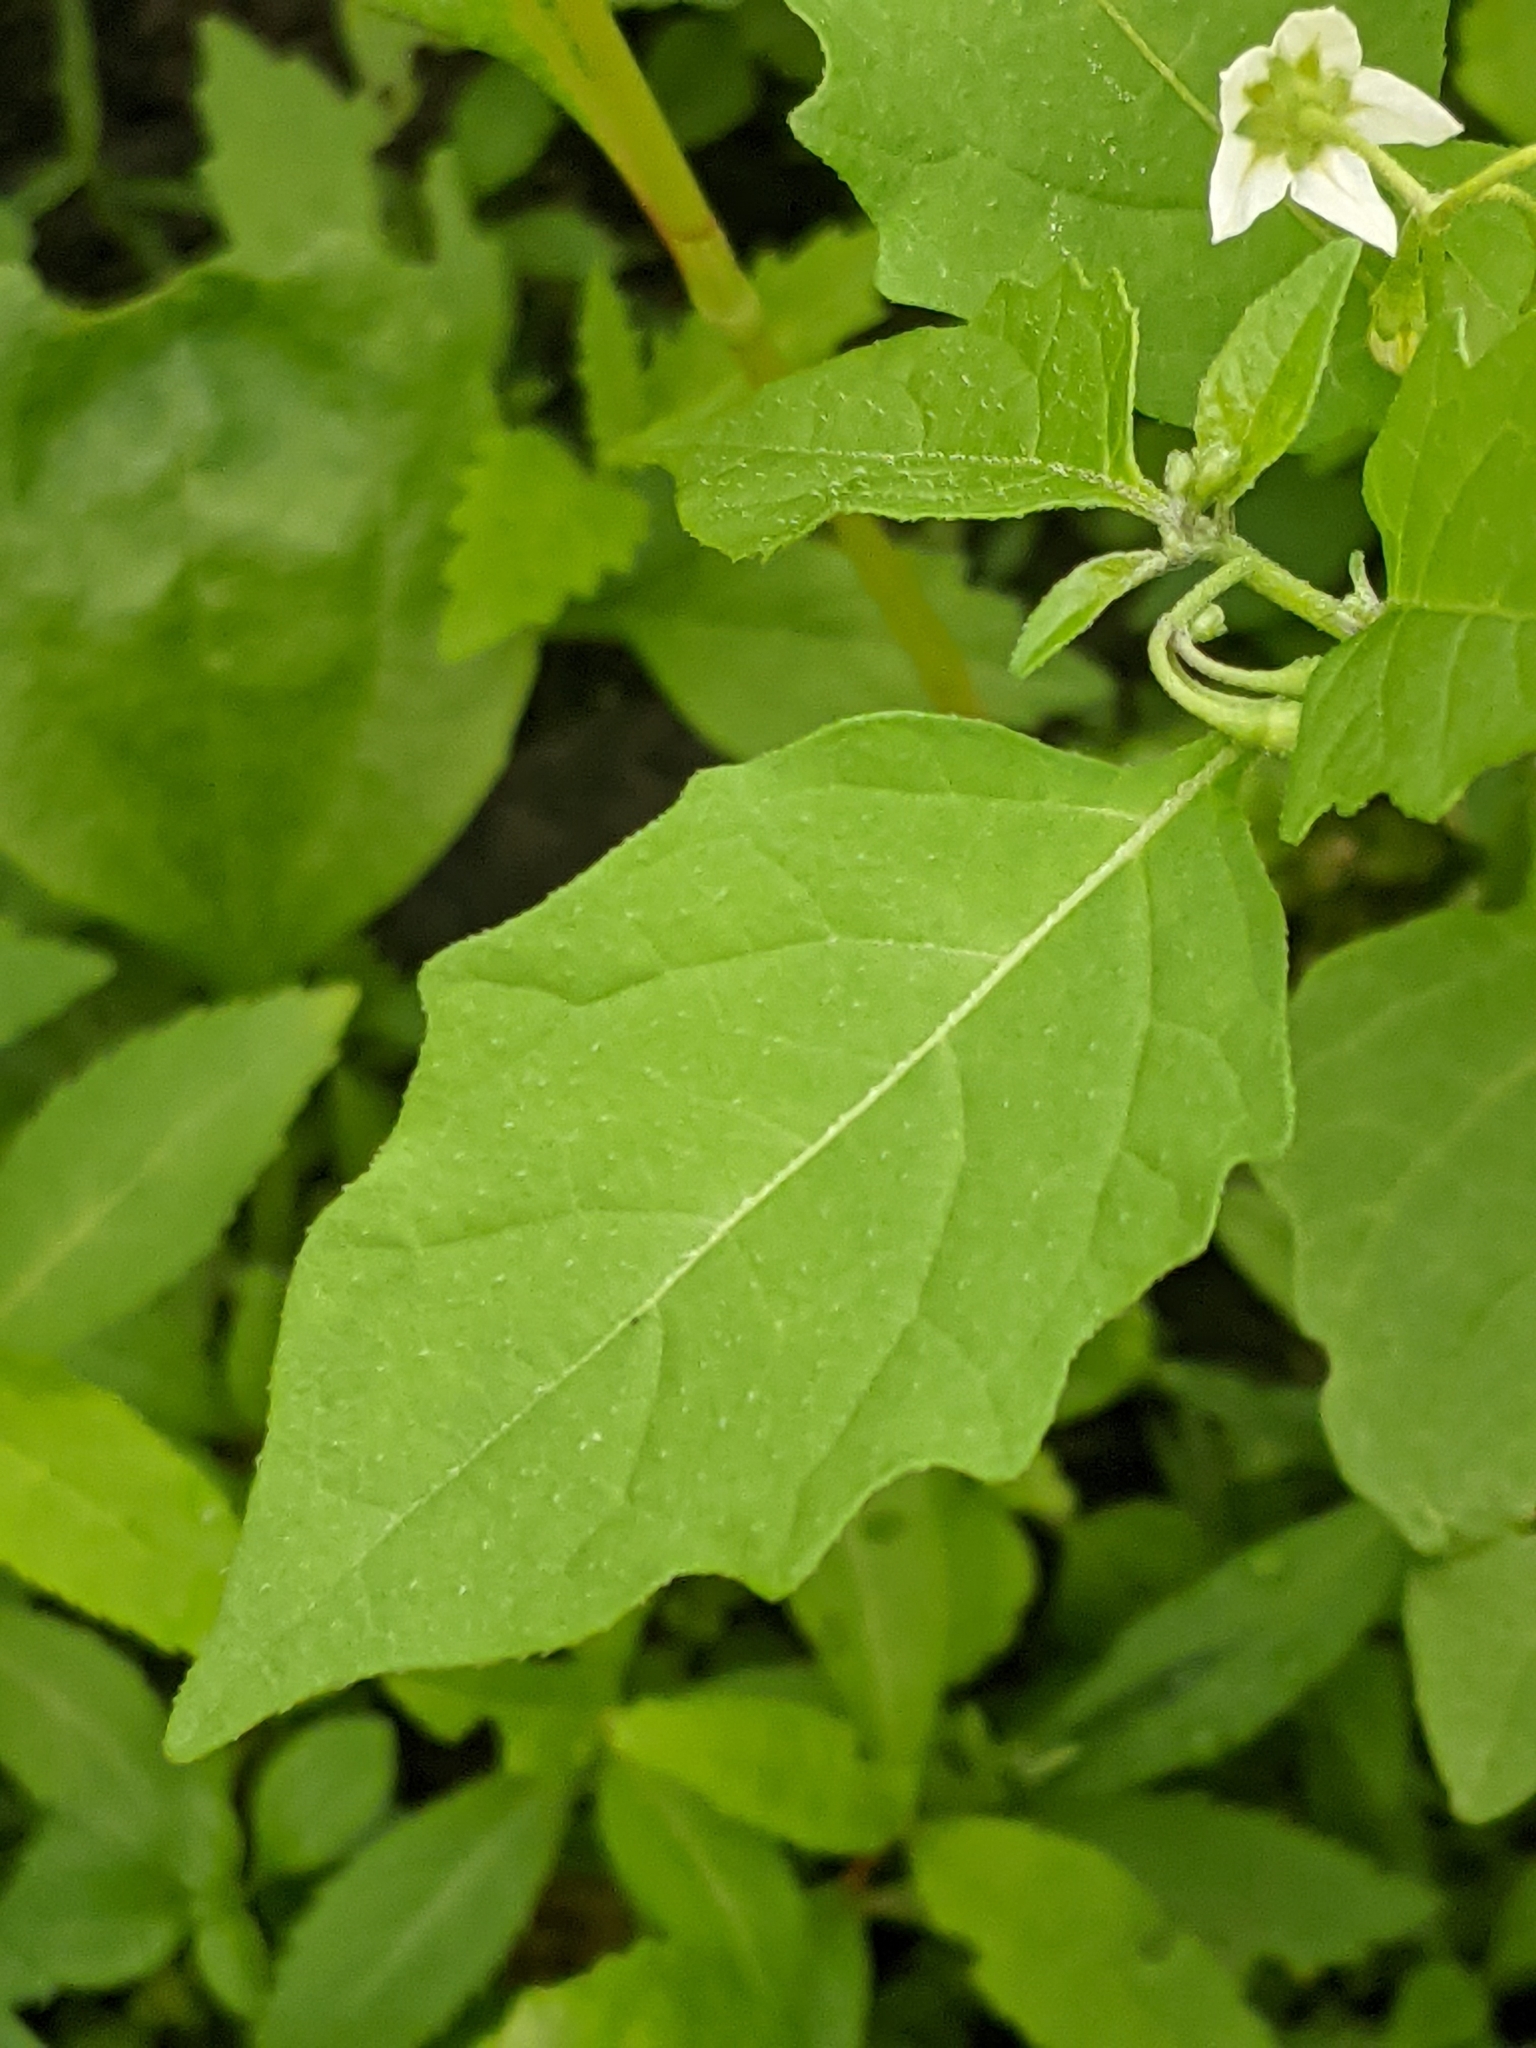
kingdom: Plantae
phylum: Tracheophyta
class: Magnoliopsida
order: Solanales
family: Solanaceae
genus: Solanum
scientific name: Solanum emulans
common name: Eastern black nightshade
